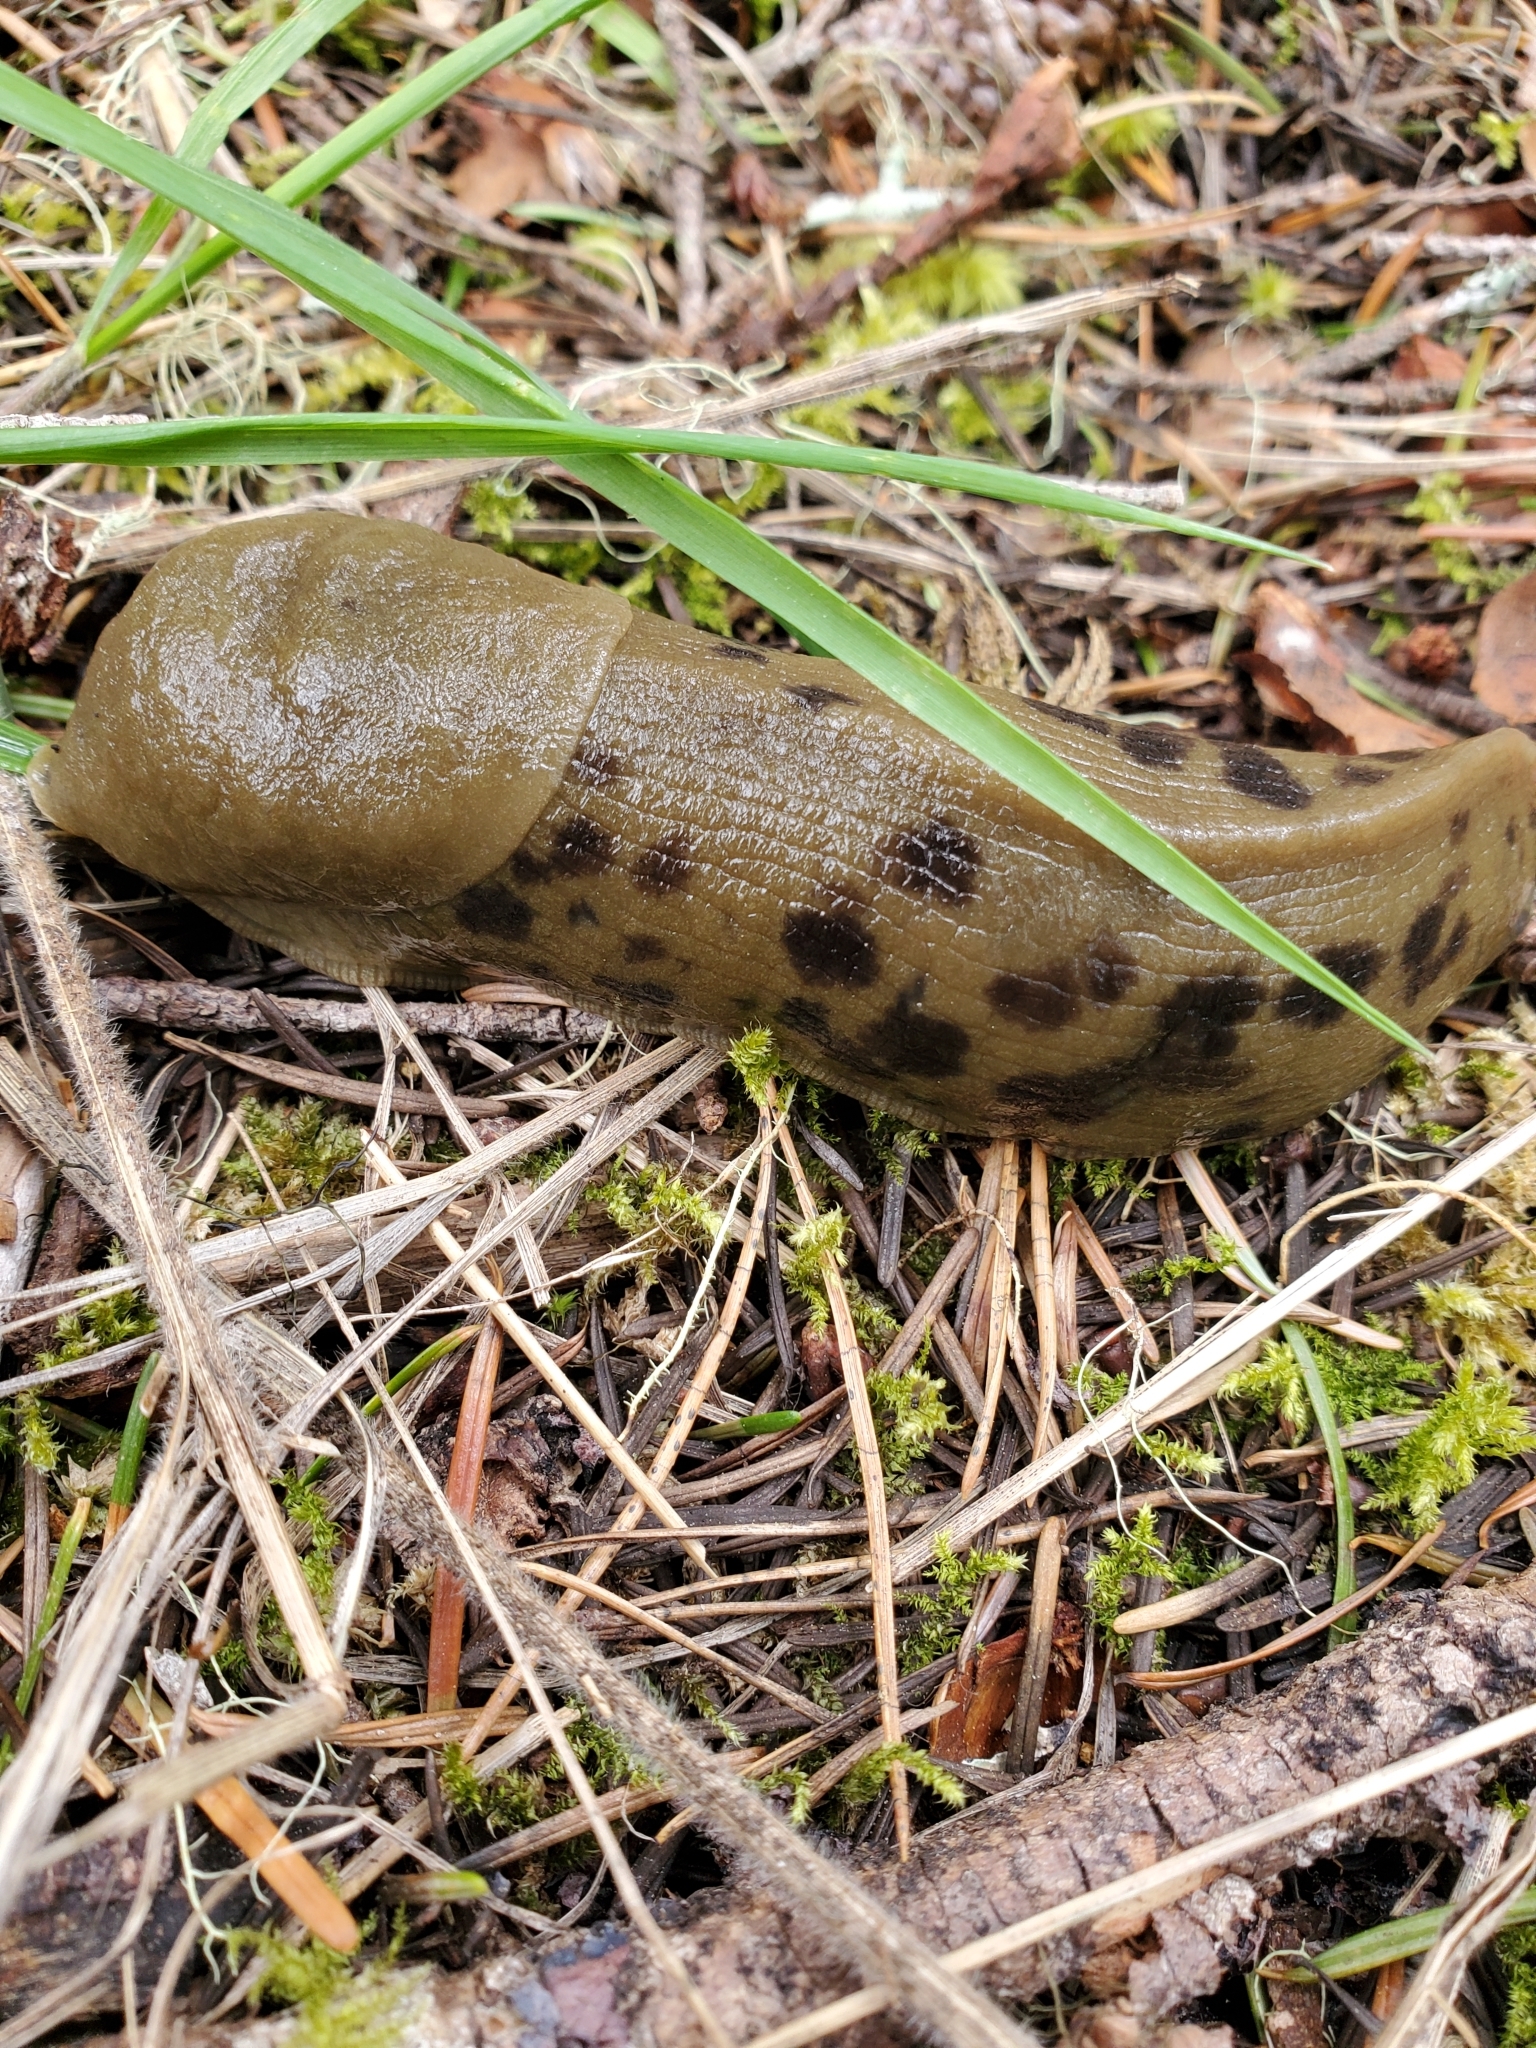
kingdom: Animalia
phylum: Mollusca
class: Gastropoda
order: Stylommatophora
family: Ariolimacidae
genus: Ariolimax
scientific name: Ariolimax columbianus
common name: Pacific banana slug
